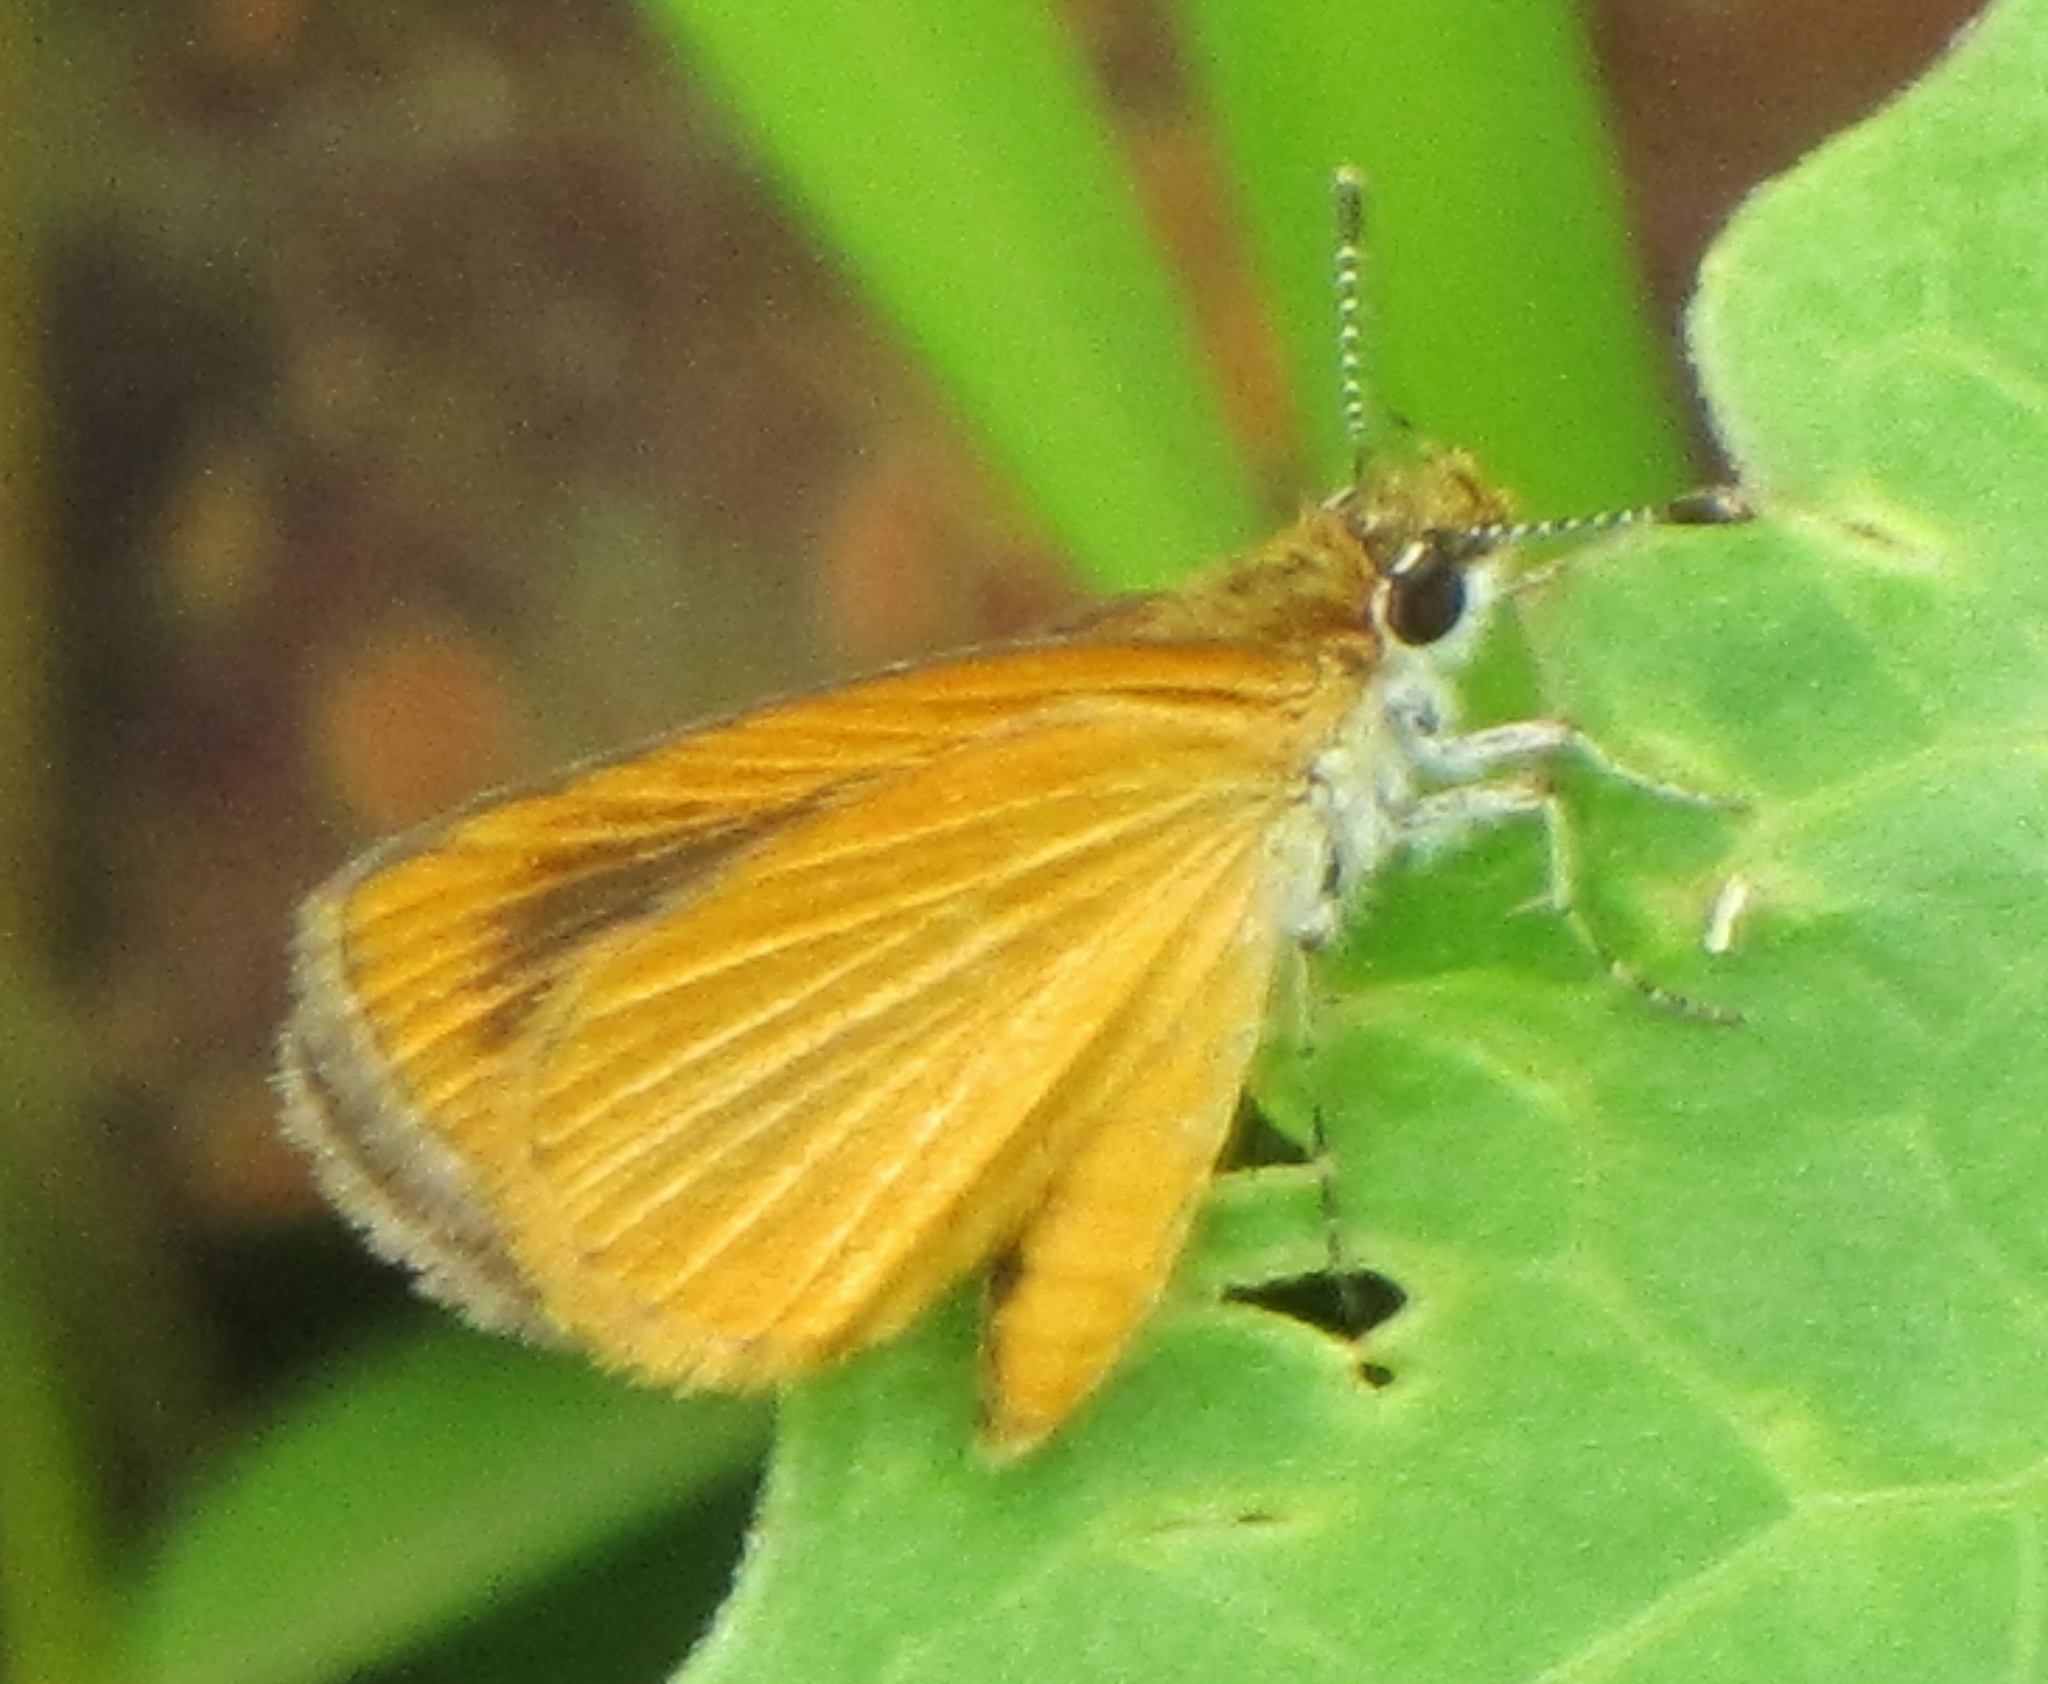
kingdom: Animalia
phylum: Arthropoda
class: Insecta
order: Lepidoptera
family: Hesperiidae
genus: Ancyloxypha
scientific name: Ancyloxypha numitor
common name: Least skipper
